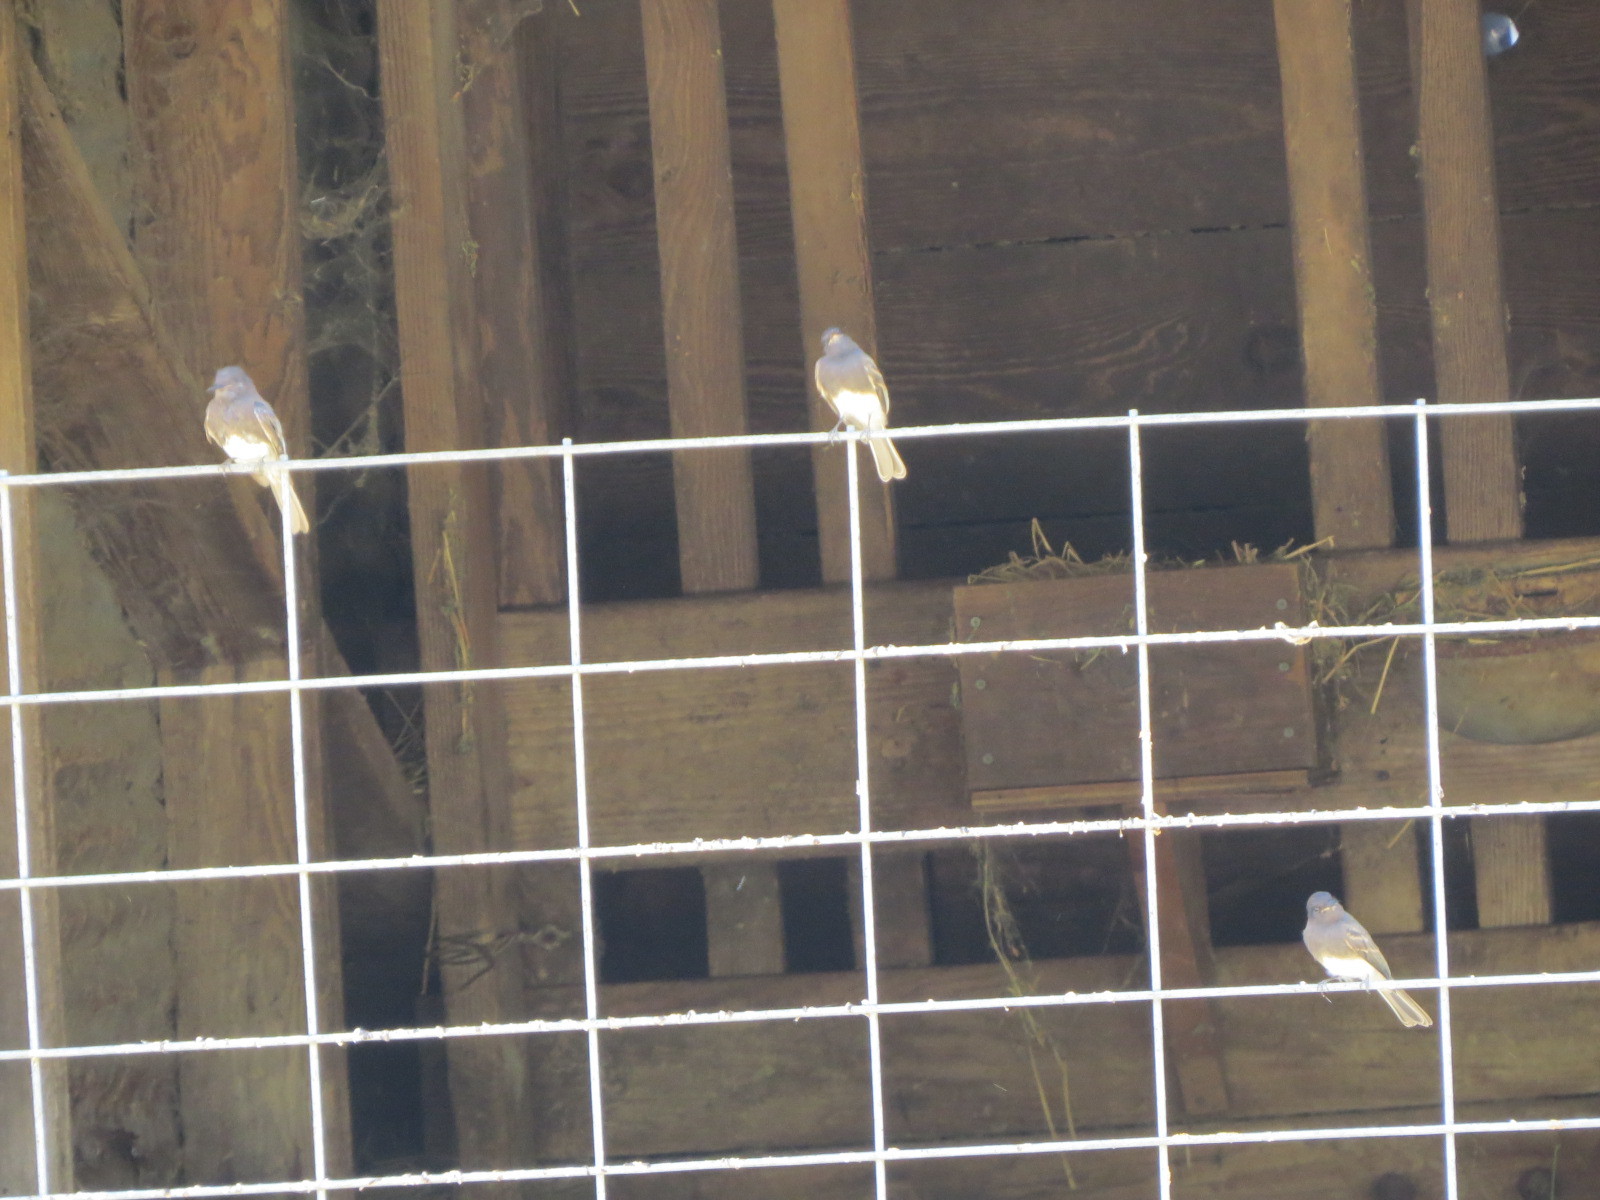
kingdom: Animalia
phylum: Chordata
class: Aves
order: Passeriformes
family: Tyrannidae
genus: Sayornis
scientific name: Sayornis nigricans
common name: Black phoebe
